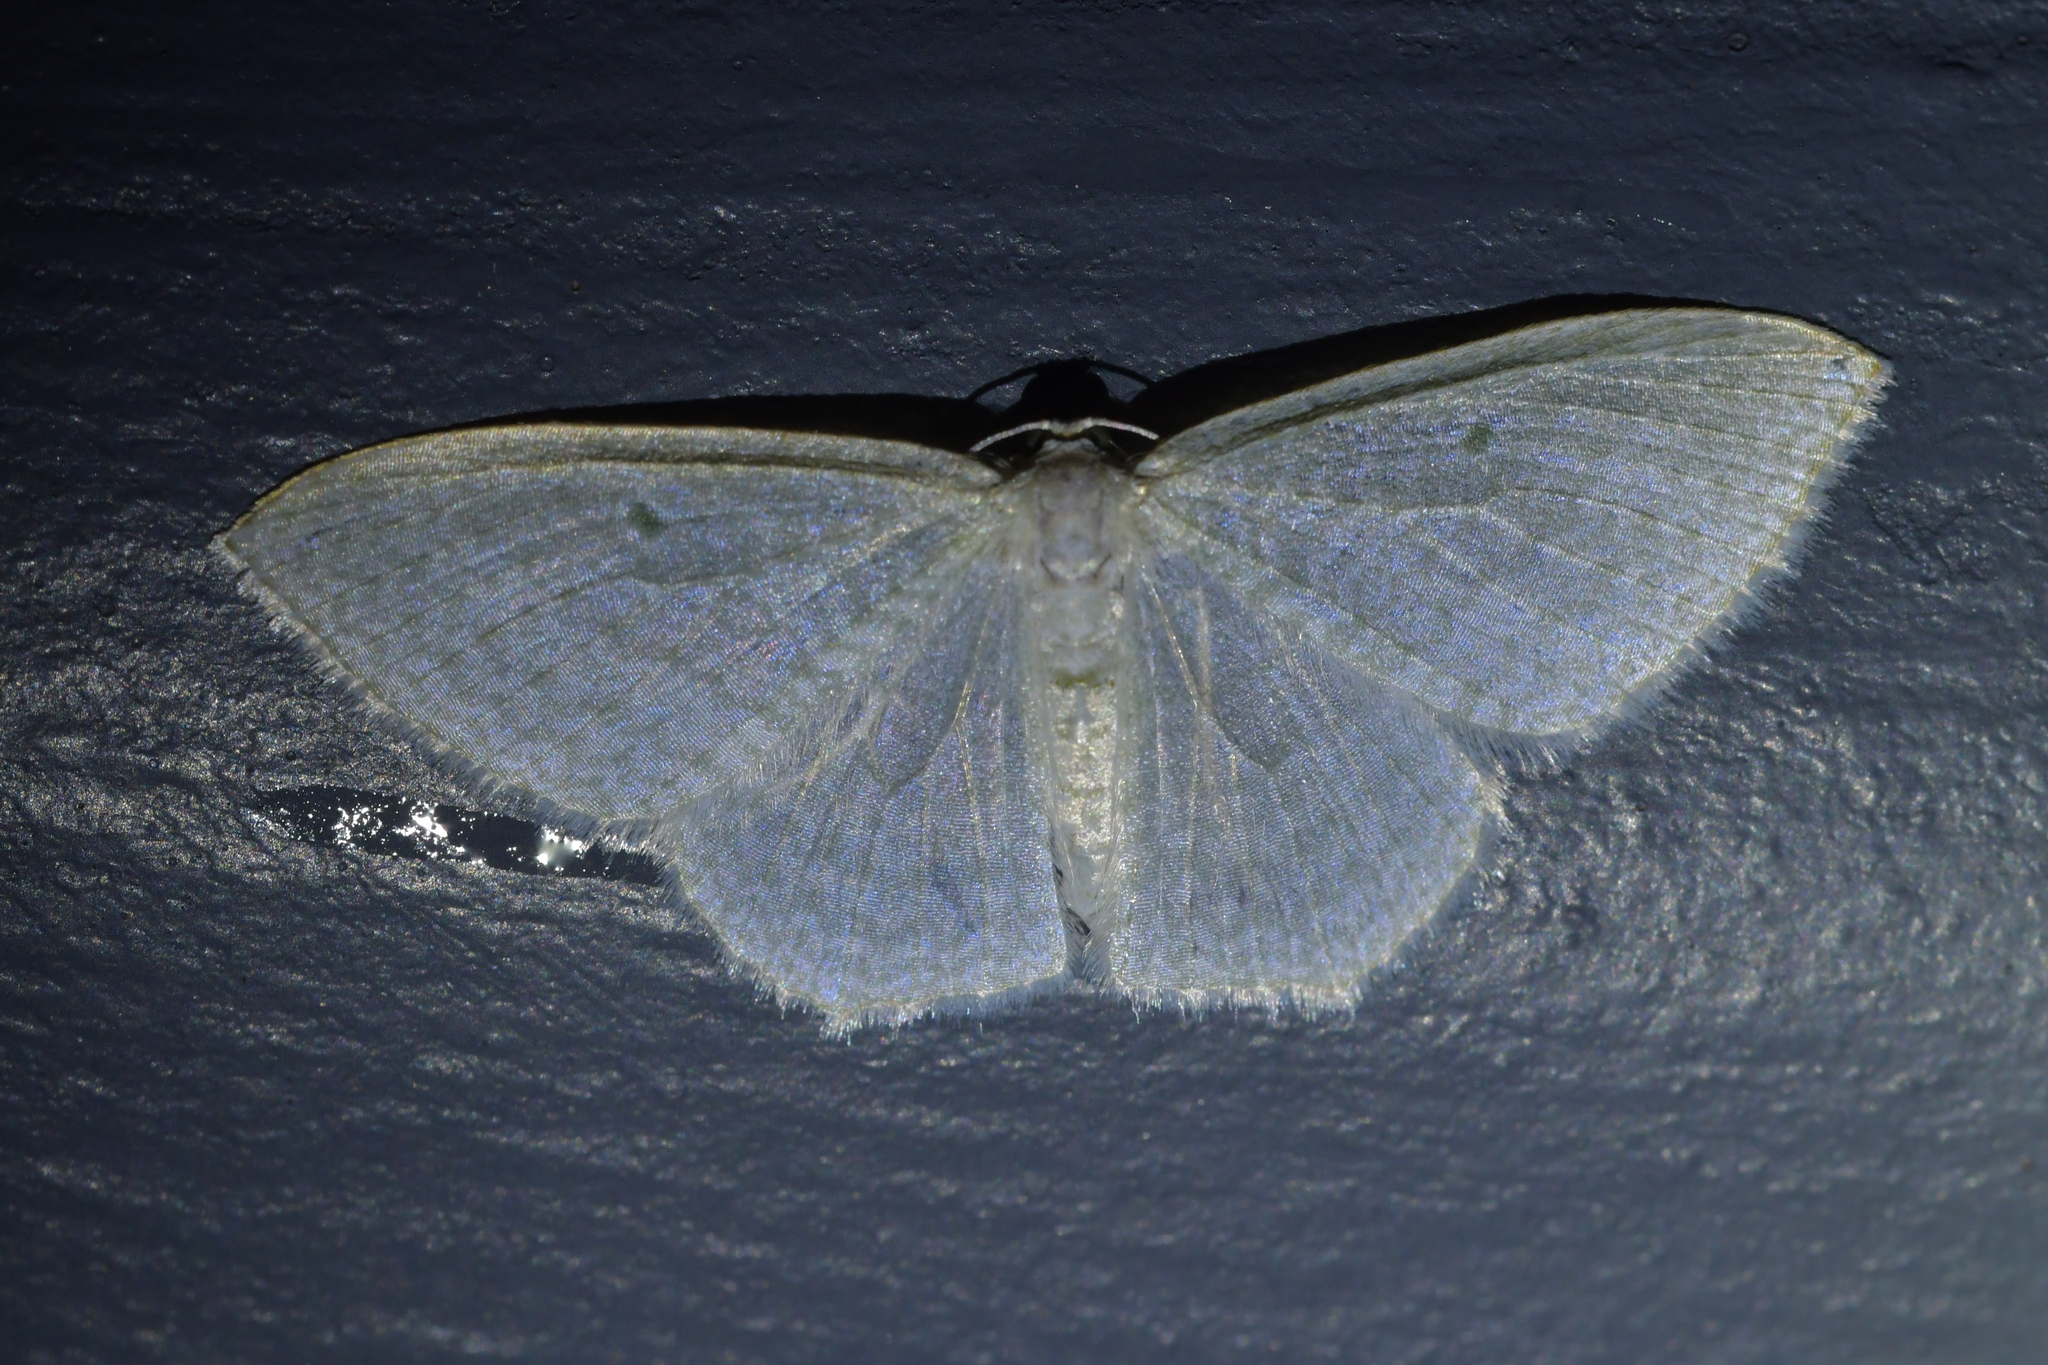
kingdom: Animalia
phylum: Arthropoda
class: Insecta
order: Lepidoptera
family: Geometridae
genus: Poecilasthena
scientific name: Poecilasthena pulchraria
